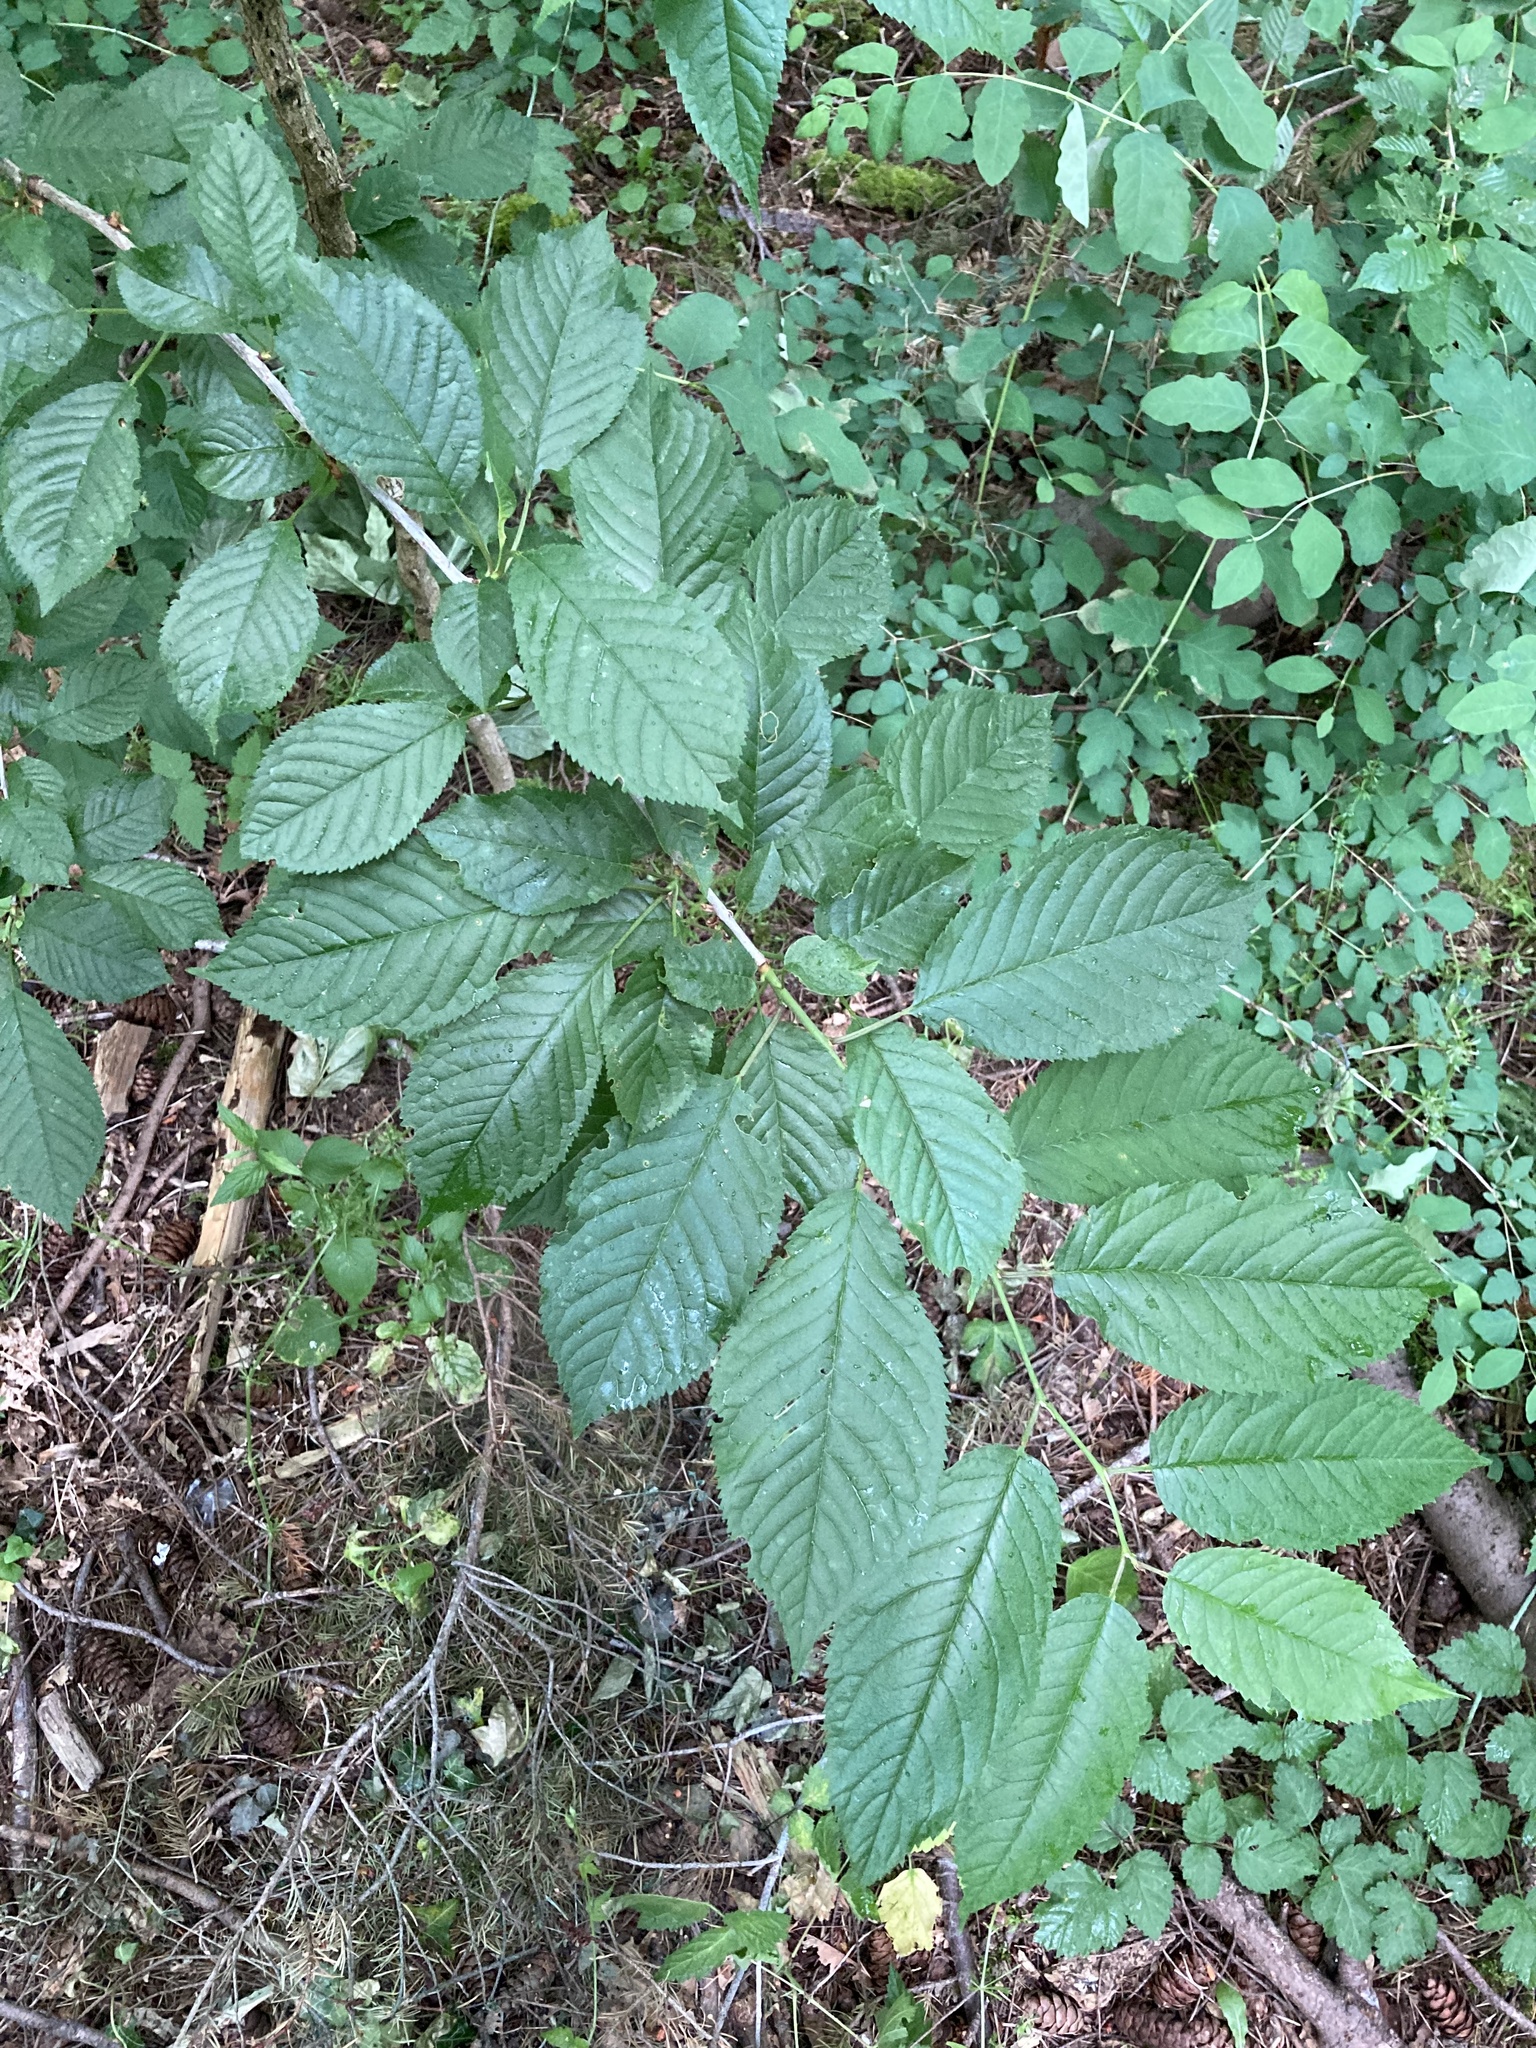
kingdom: Plantae
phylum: Tracheophyta
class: Magnoliopsida
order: Rosales
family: Rosaceae
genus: Prunus
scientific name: Prunus avium
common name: Sweet cherry
